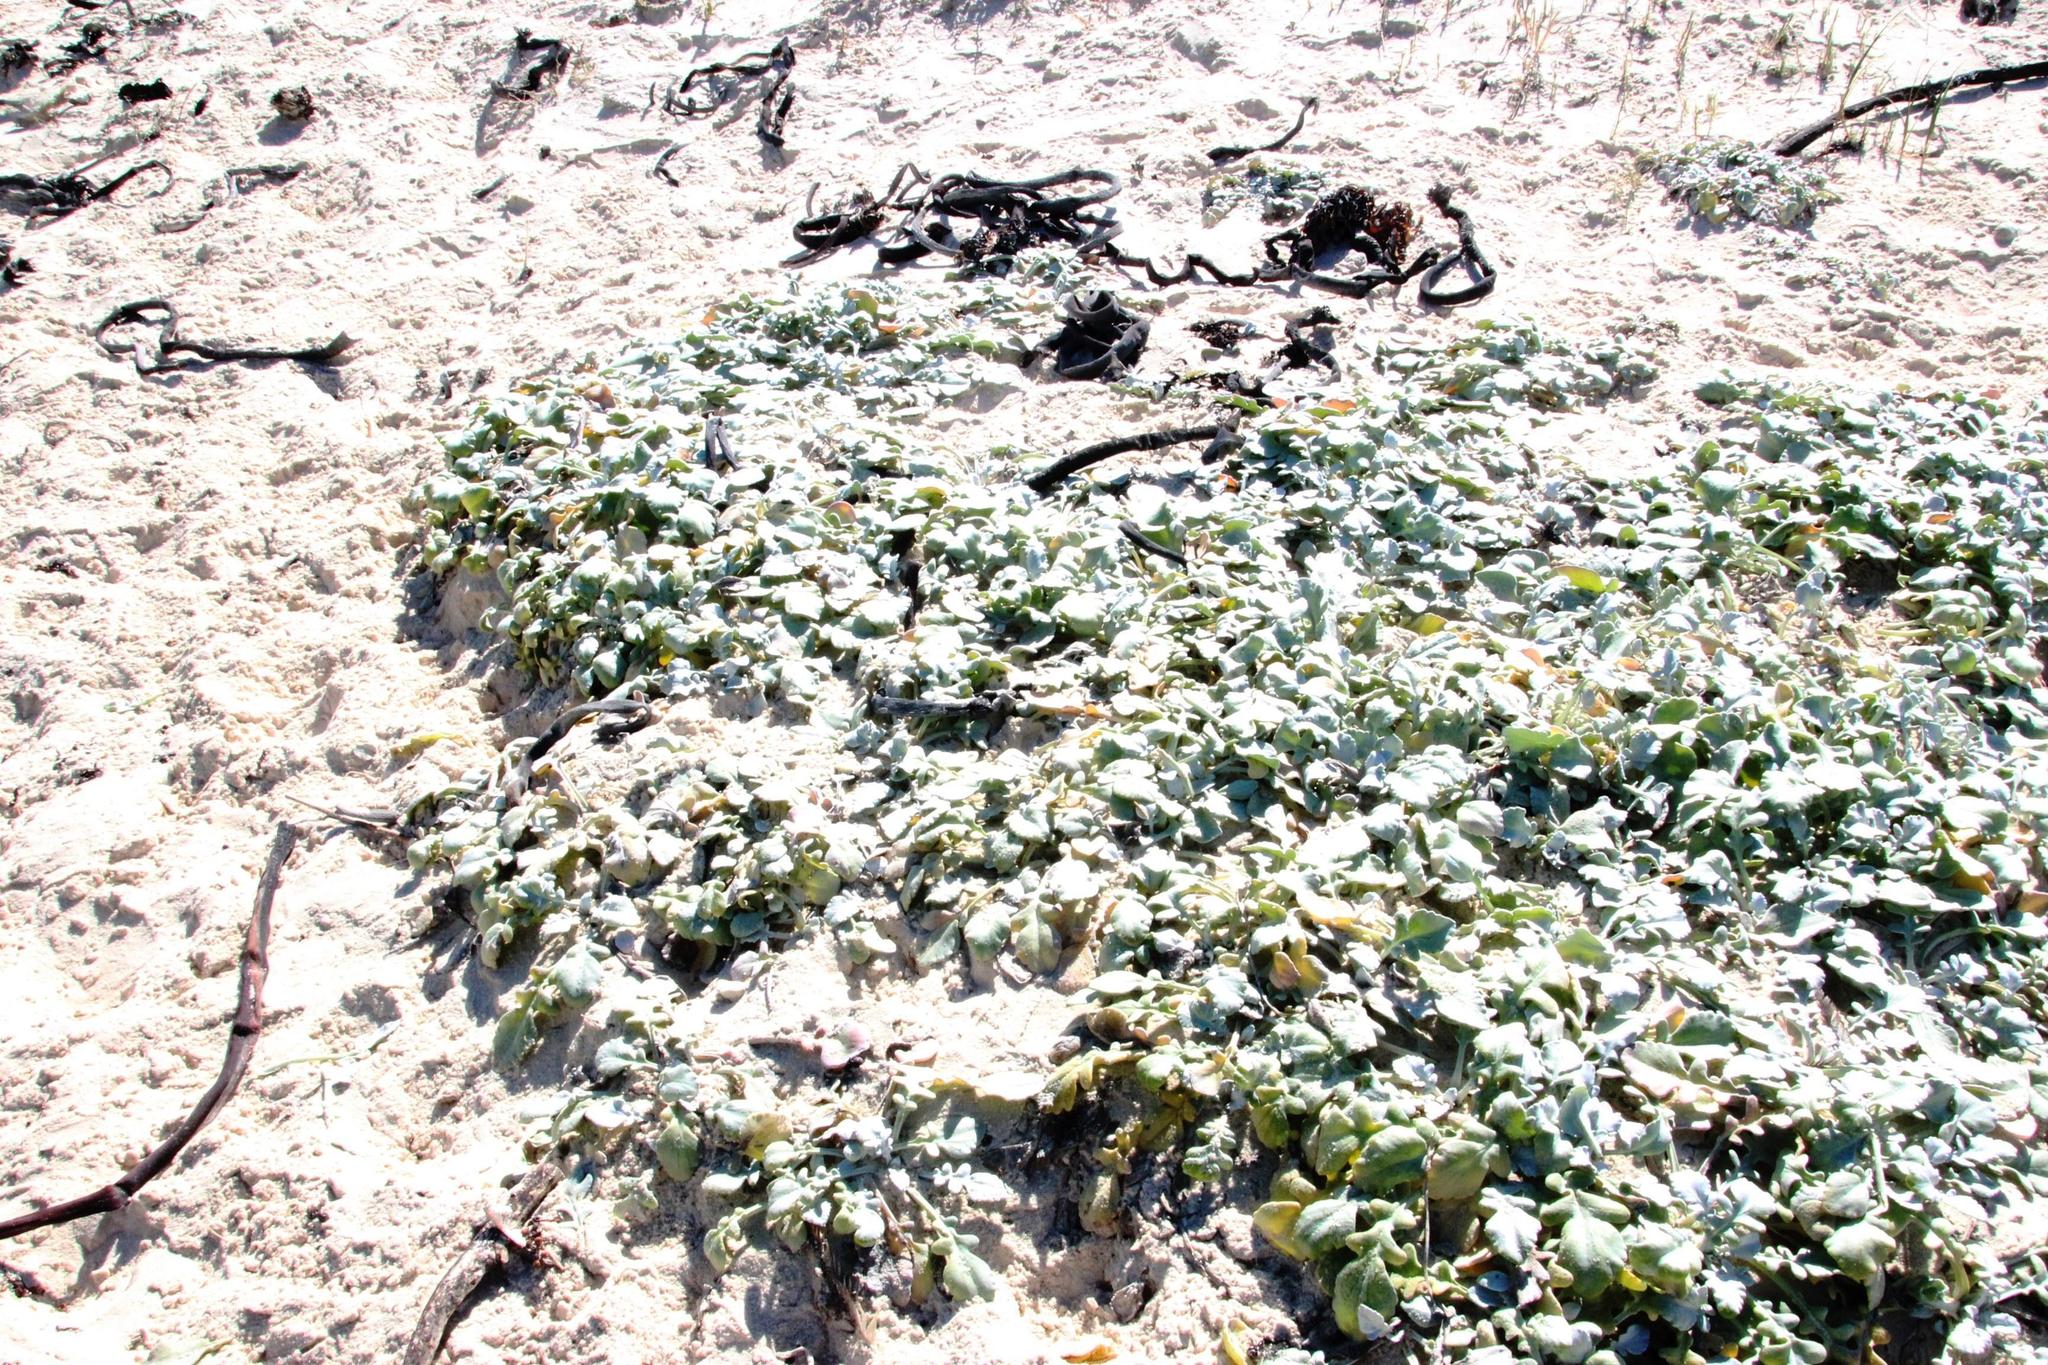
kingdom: Plantae
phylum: Tracheophyta
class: Magnoliopsida
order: Asterales
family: Asteraceae
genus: Arctotheca
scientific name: Arctotheca populifolia
